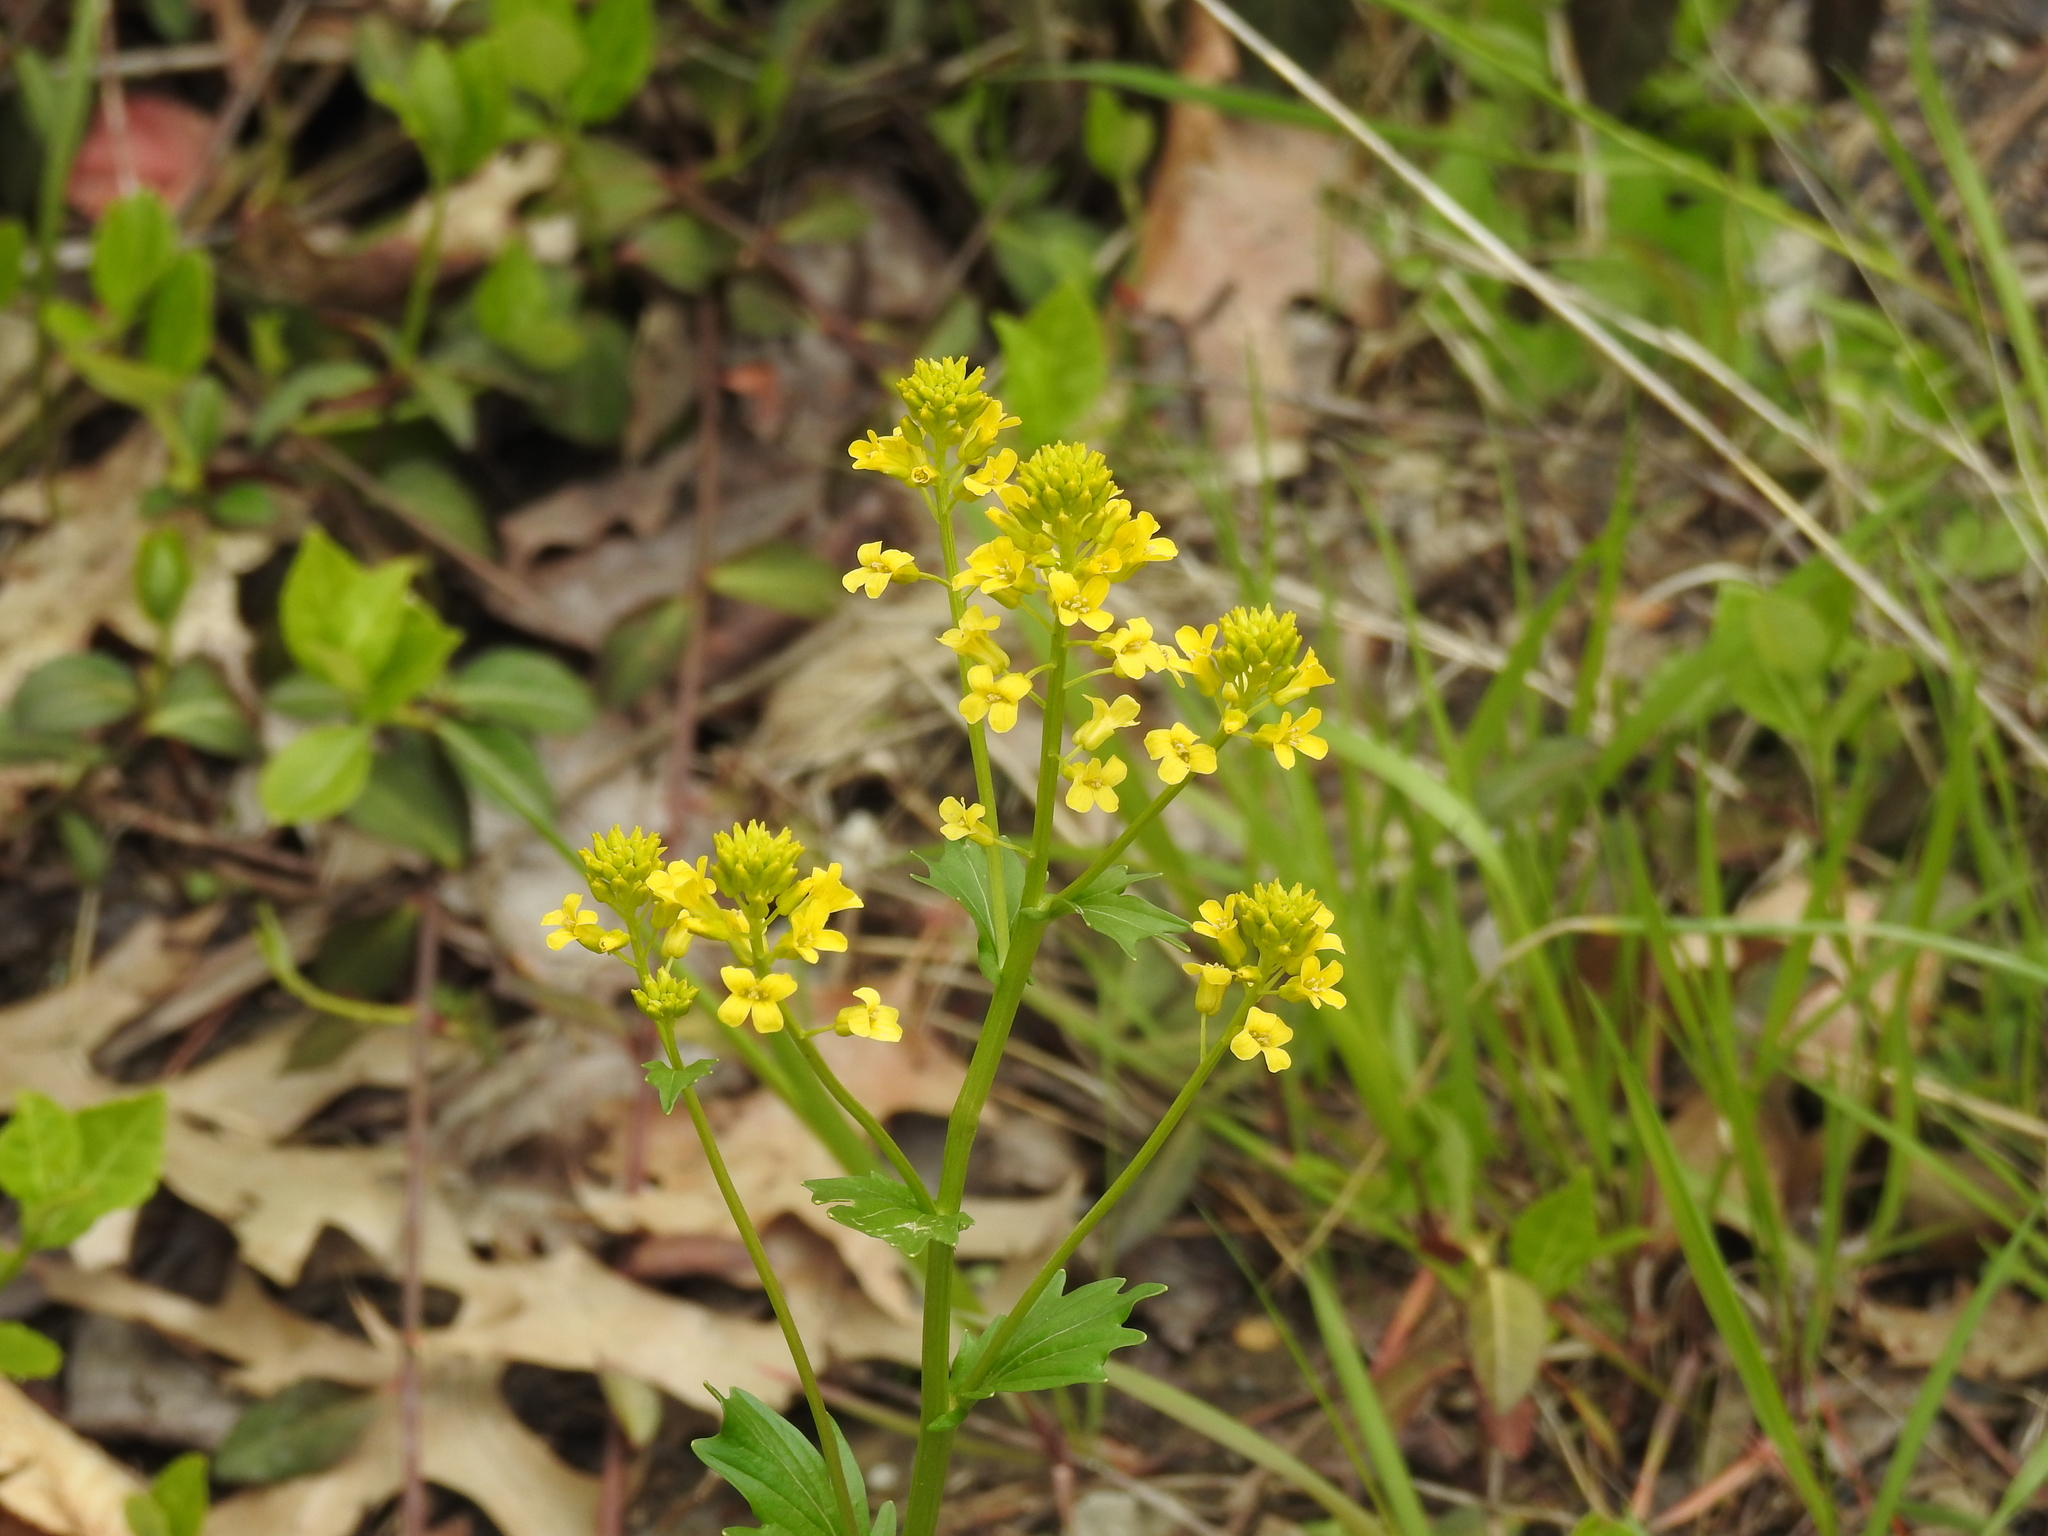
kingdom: Plantae
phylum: Tracheophyta
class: Magnoliopsida
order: Brassicales
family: Brassicaceae
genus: Barbarea
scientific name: Barbarea vulgaris
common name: Cressy-greens
